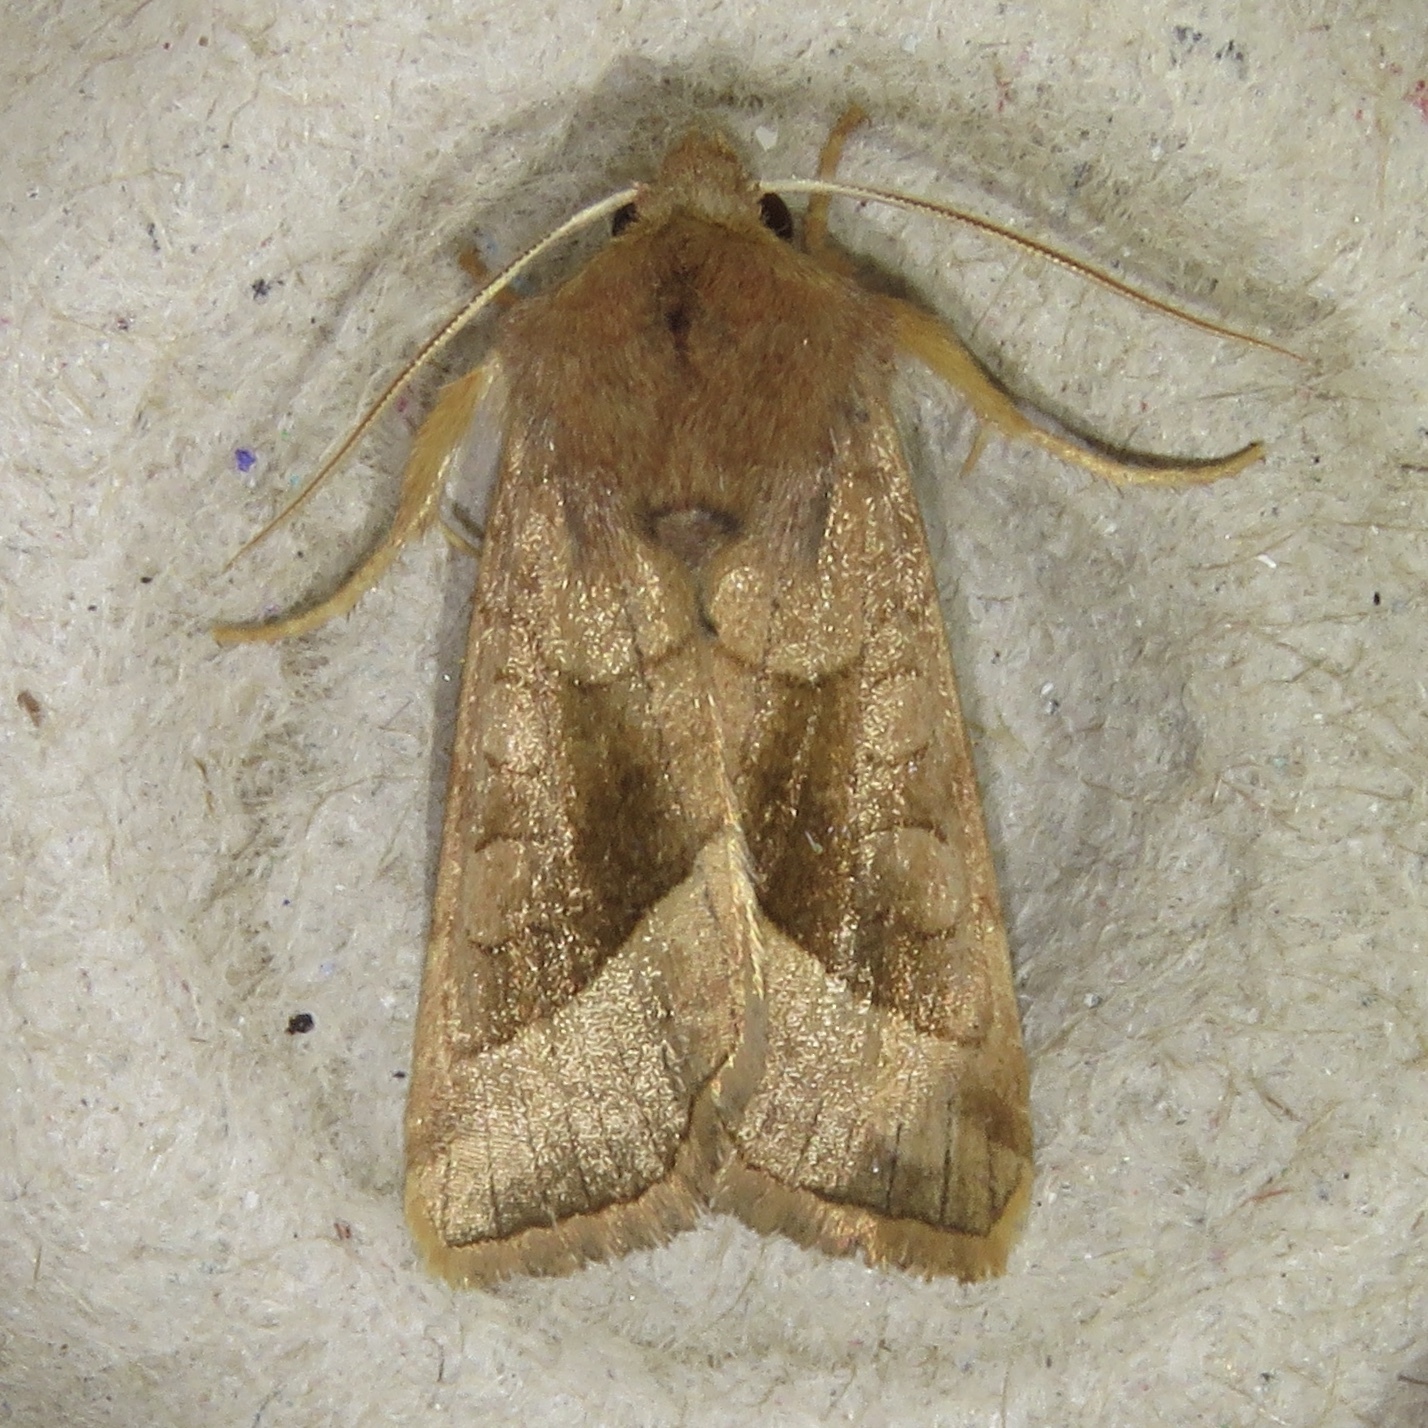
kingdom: Animalia
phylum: Arthropoda
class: Insecta
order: Lepidoptera
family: Noctuidae
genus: Hydraecia
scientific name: Hydraecia micacea
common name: Rosy rustic
